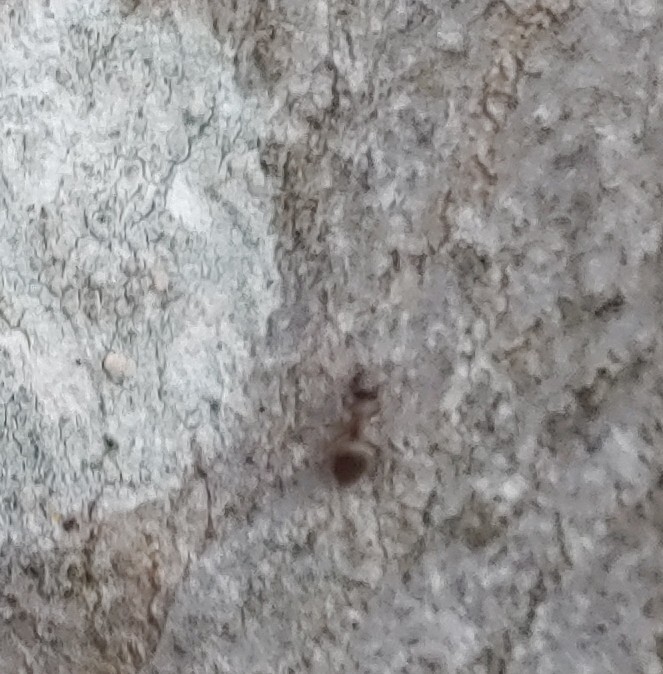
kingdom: Animalia
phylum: Arthropoda
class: Insecta
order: Hymenoptera
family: Formicidae
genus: Lasius
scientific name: Lasius americanus
